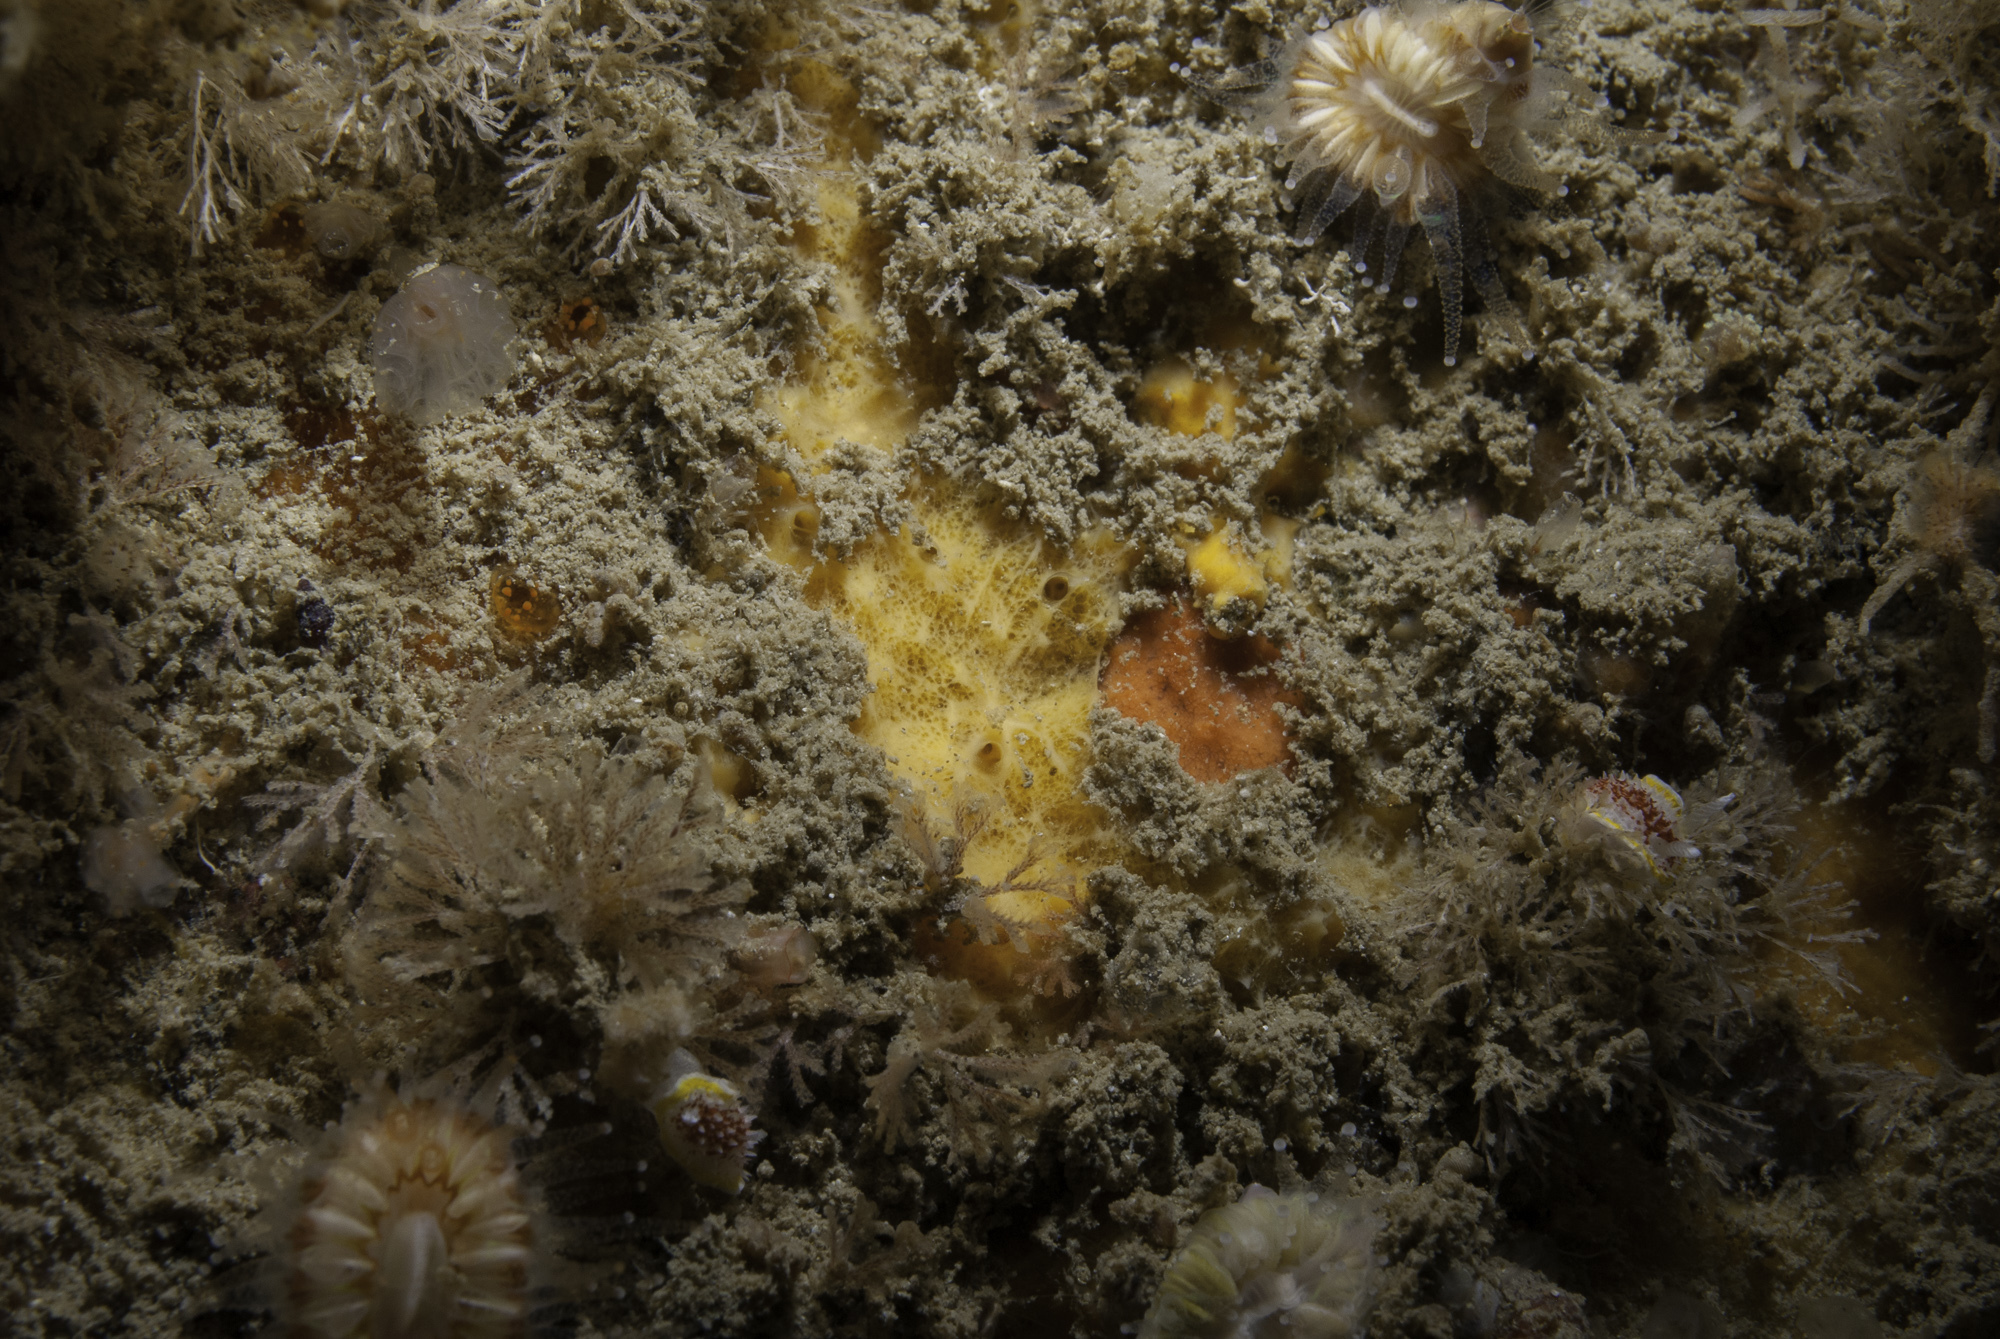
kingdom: Animalia
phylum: Porifera
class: Demospongiae
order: Axinellida
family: Stelligeridae
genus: Halicnemia
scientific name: Halicnemia verticillata
